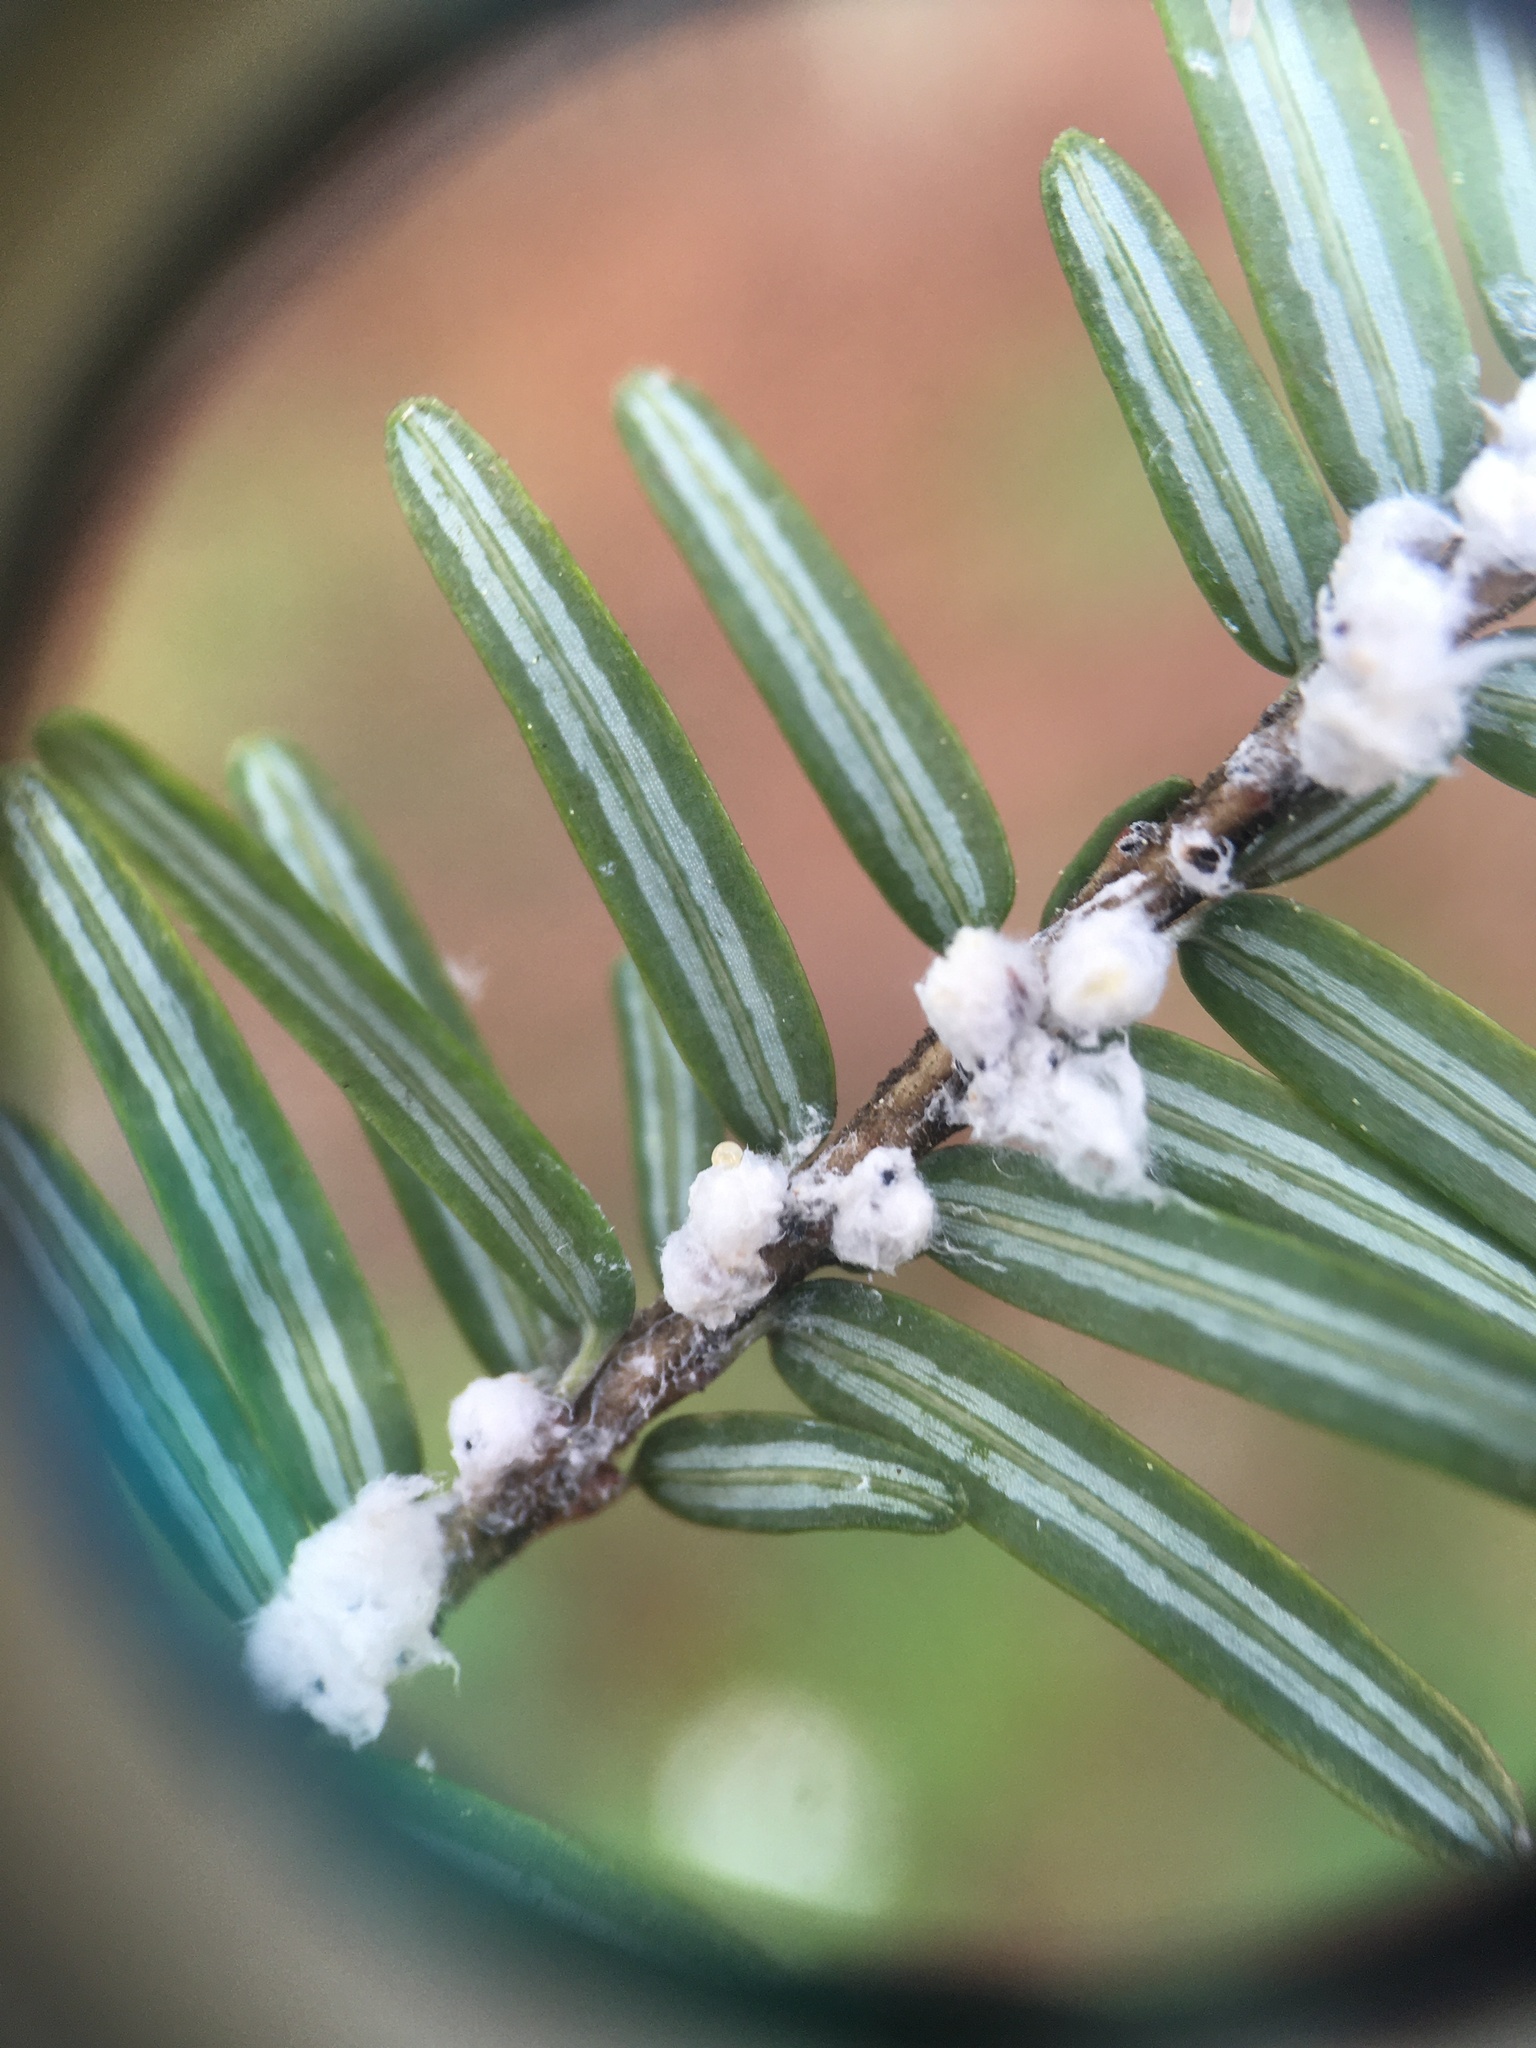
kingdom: Animalia
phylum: Arthropoda
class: Insecta
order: Hemiptera
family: Adelgidae
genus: Adelges
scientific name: Adelges tsugae
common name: Hemlock woolly adelgid
